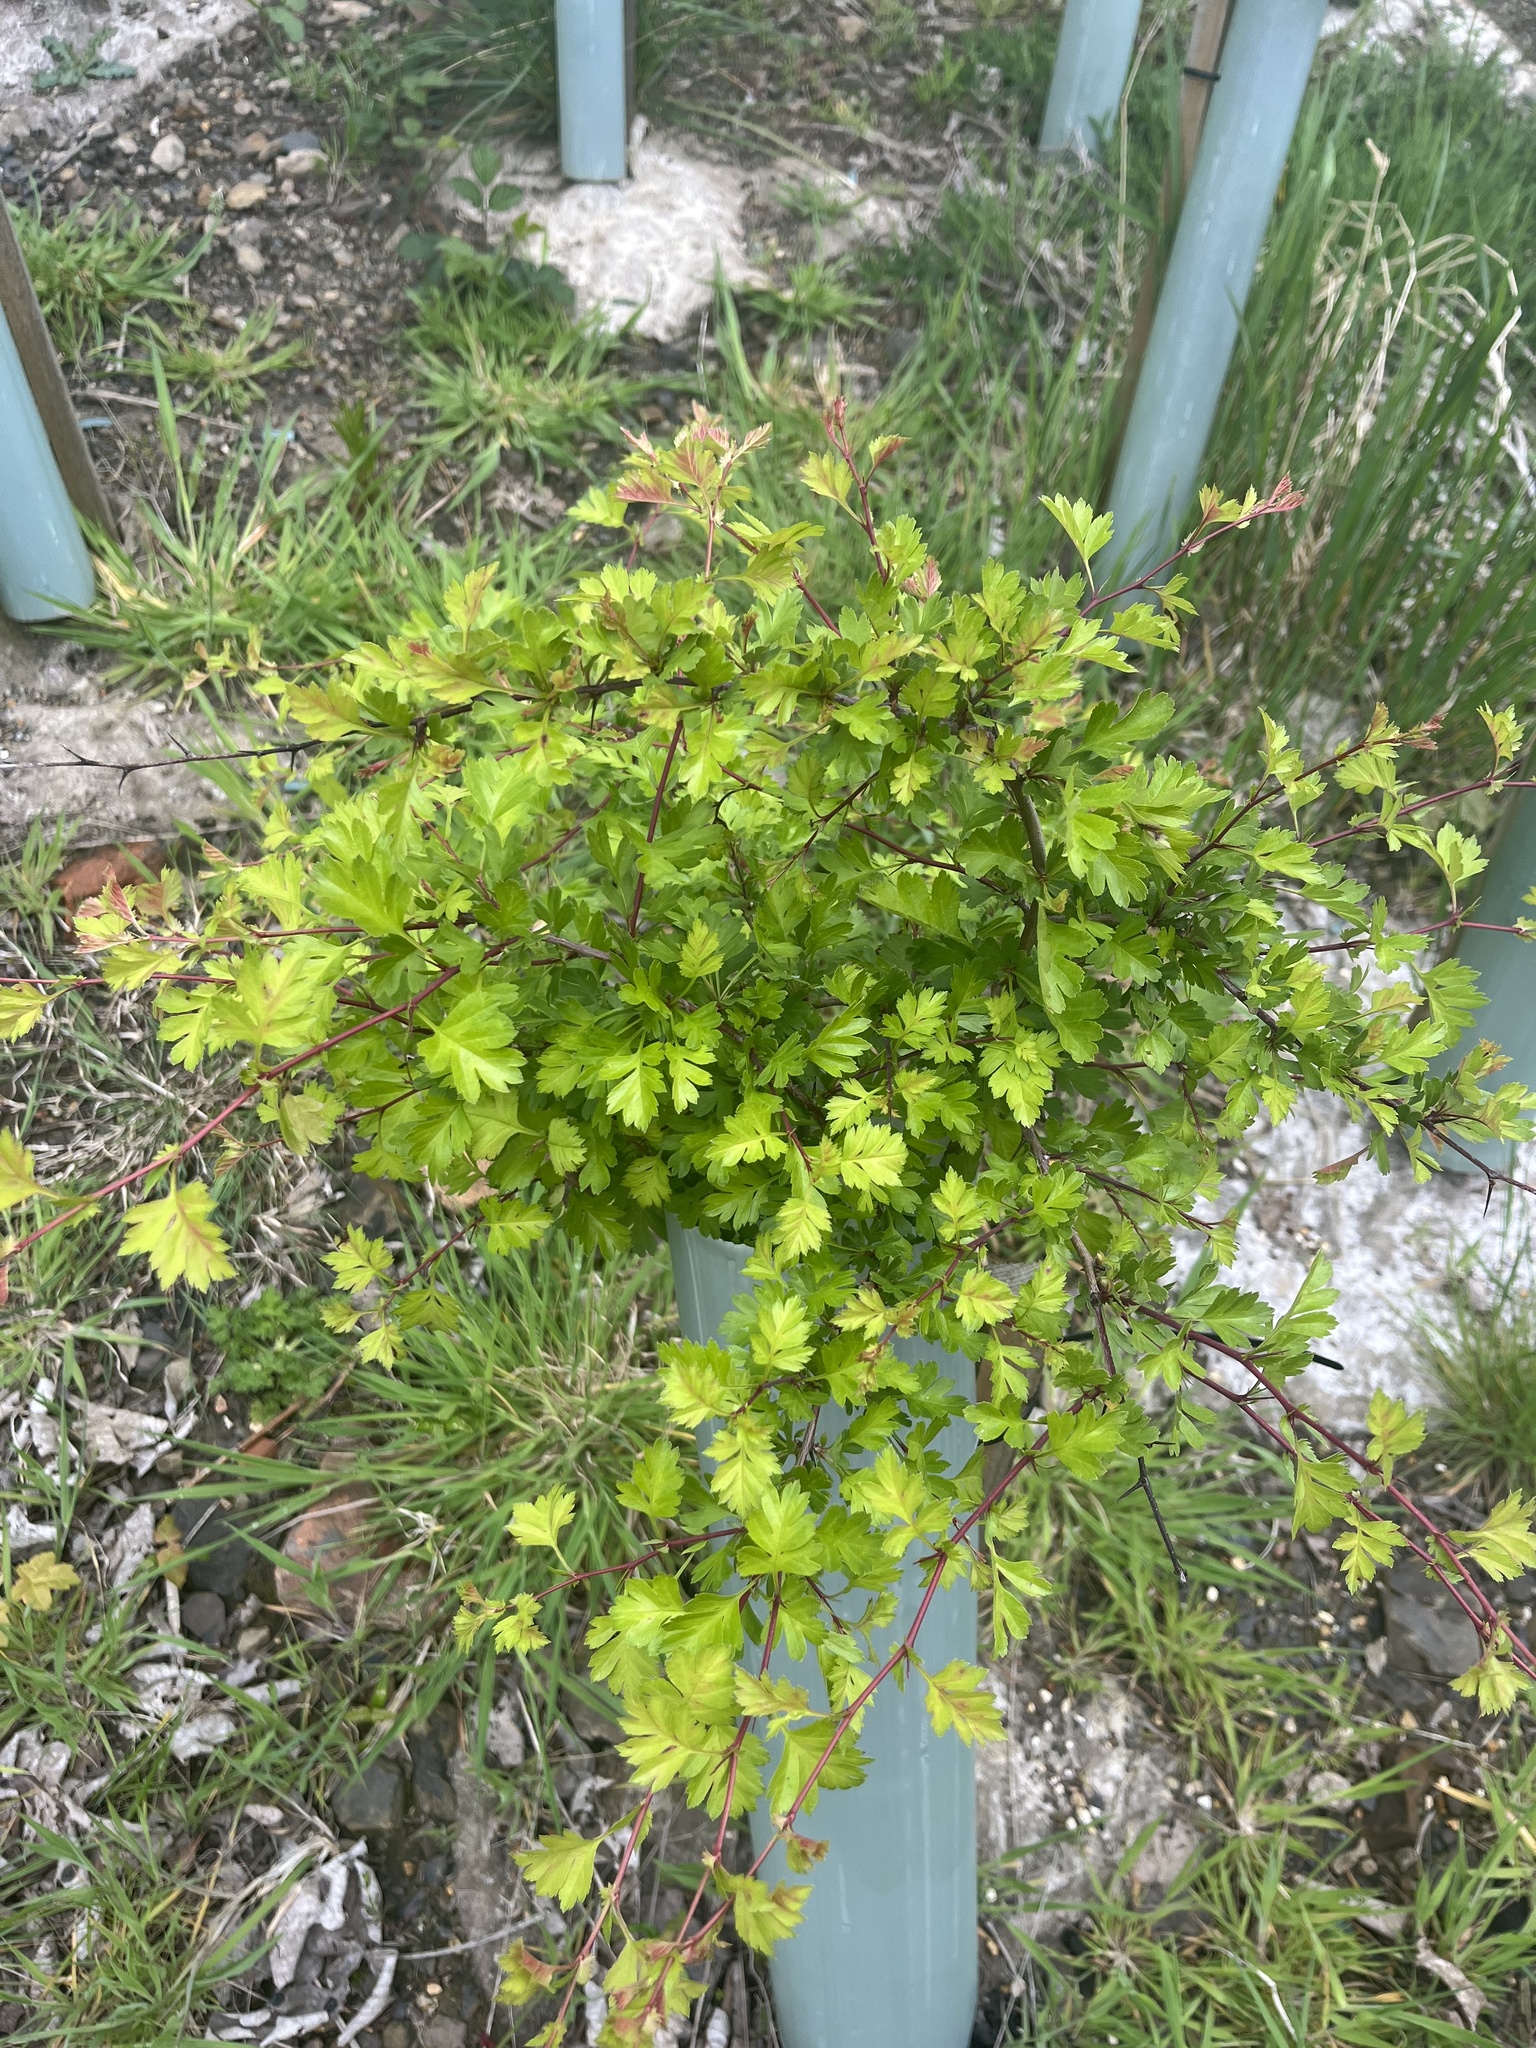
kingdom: Plantae
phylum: Tracheophyta
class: Magnoliopsida
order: Rosales
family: Rosaceae
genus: Crataegus
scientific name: Crataegus monogyna
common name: Hawthorn
